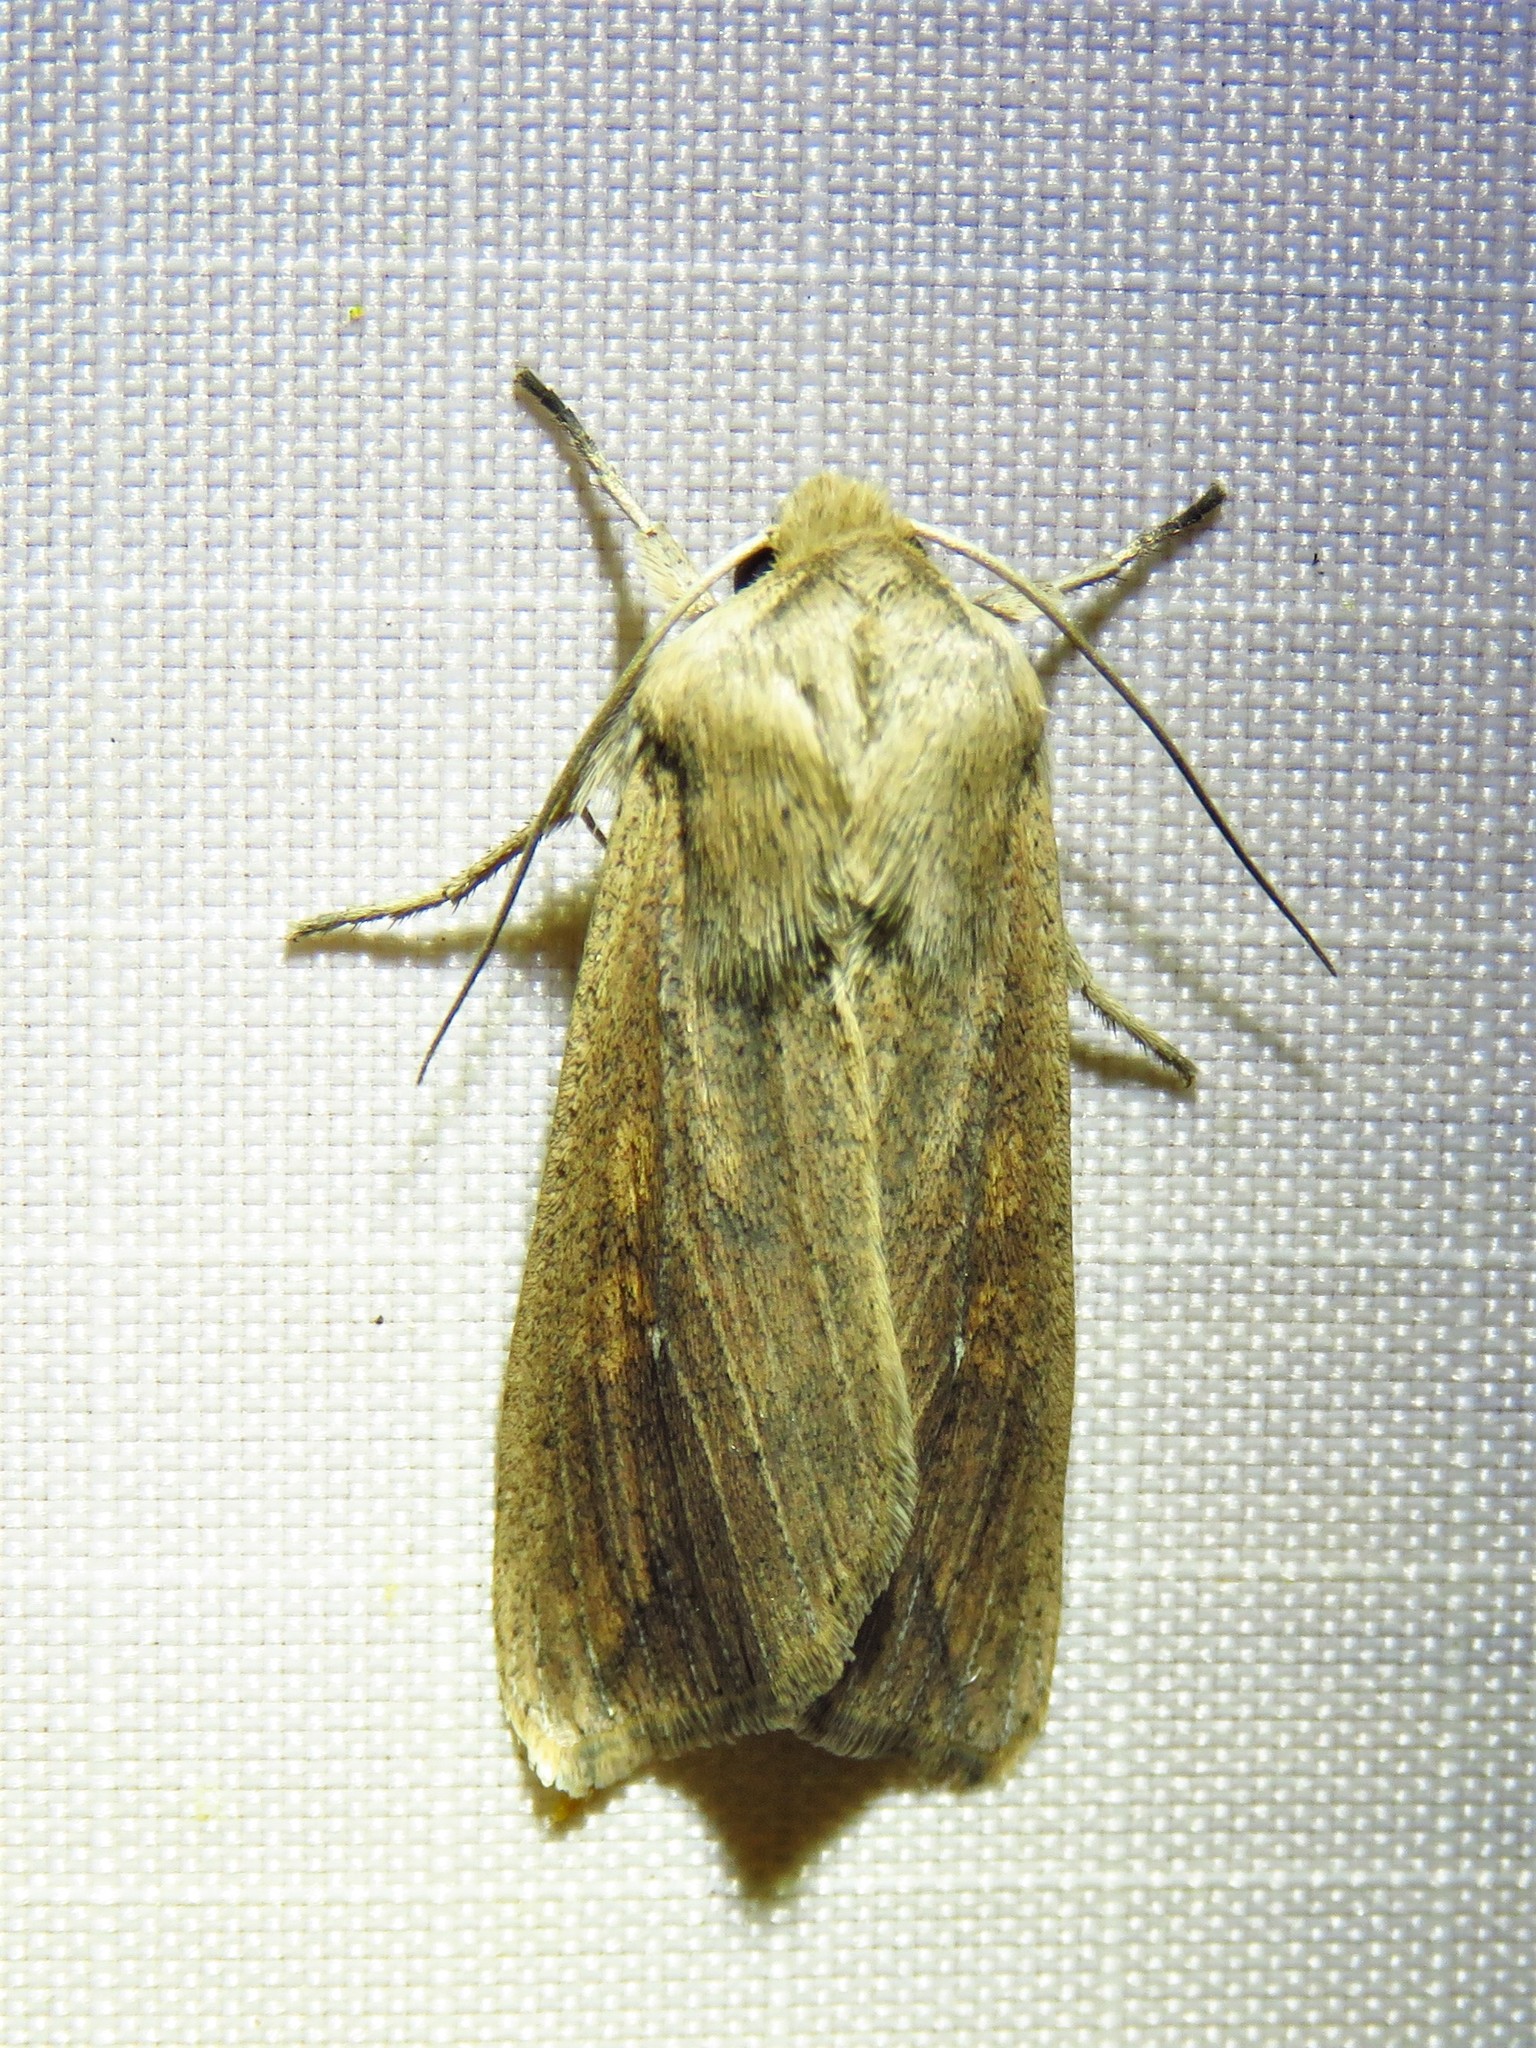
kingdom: Animalia
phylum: Arthropoda
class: Insecta
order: Lepidoptera
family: Noctuidae
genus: Mythimna
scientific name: Mythimna unipuncta
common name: White-speck
